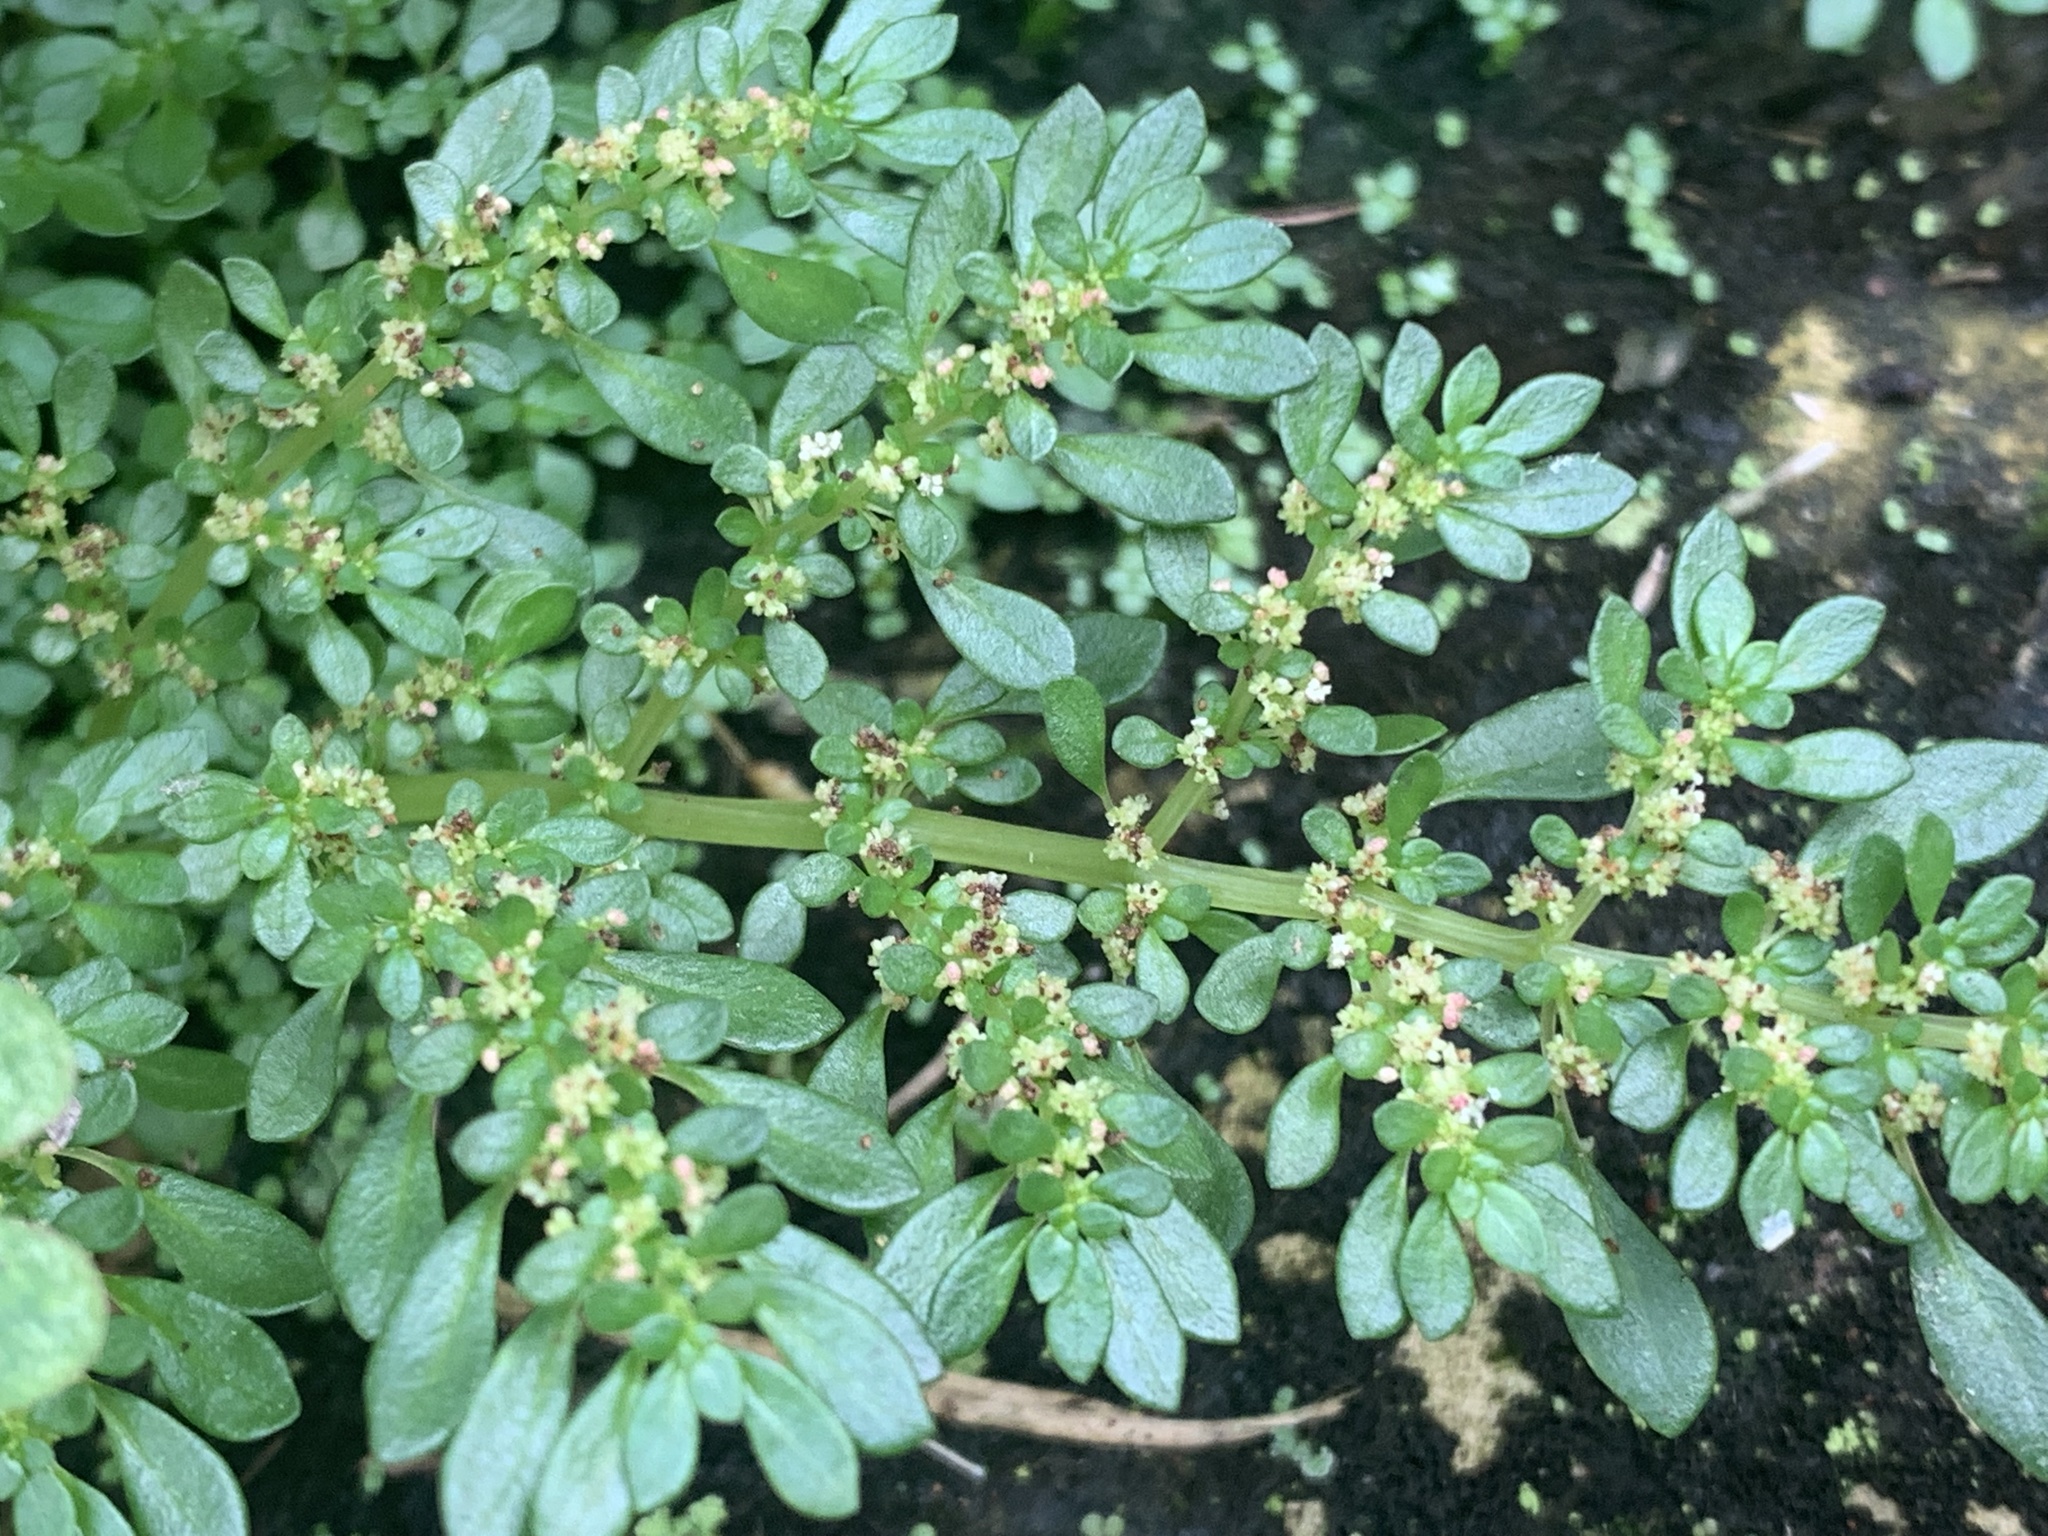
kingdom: Plantae
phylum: Tracheophyta
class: Magnoliopsida
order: Rosales
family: Urticaceae
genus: Pilea
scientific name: Pilea microphylla
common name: Artillery-plant
